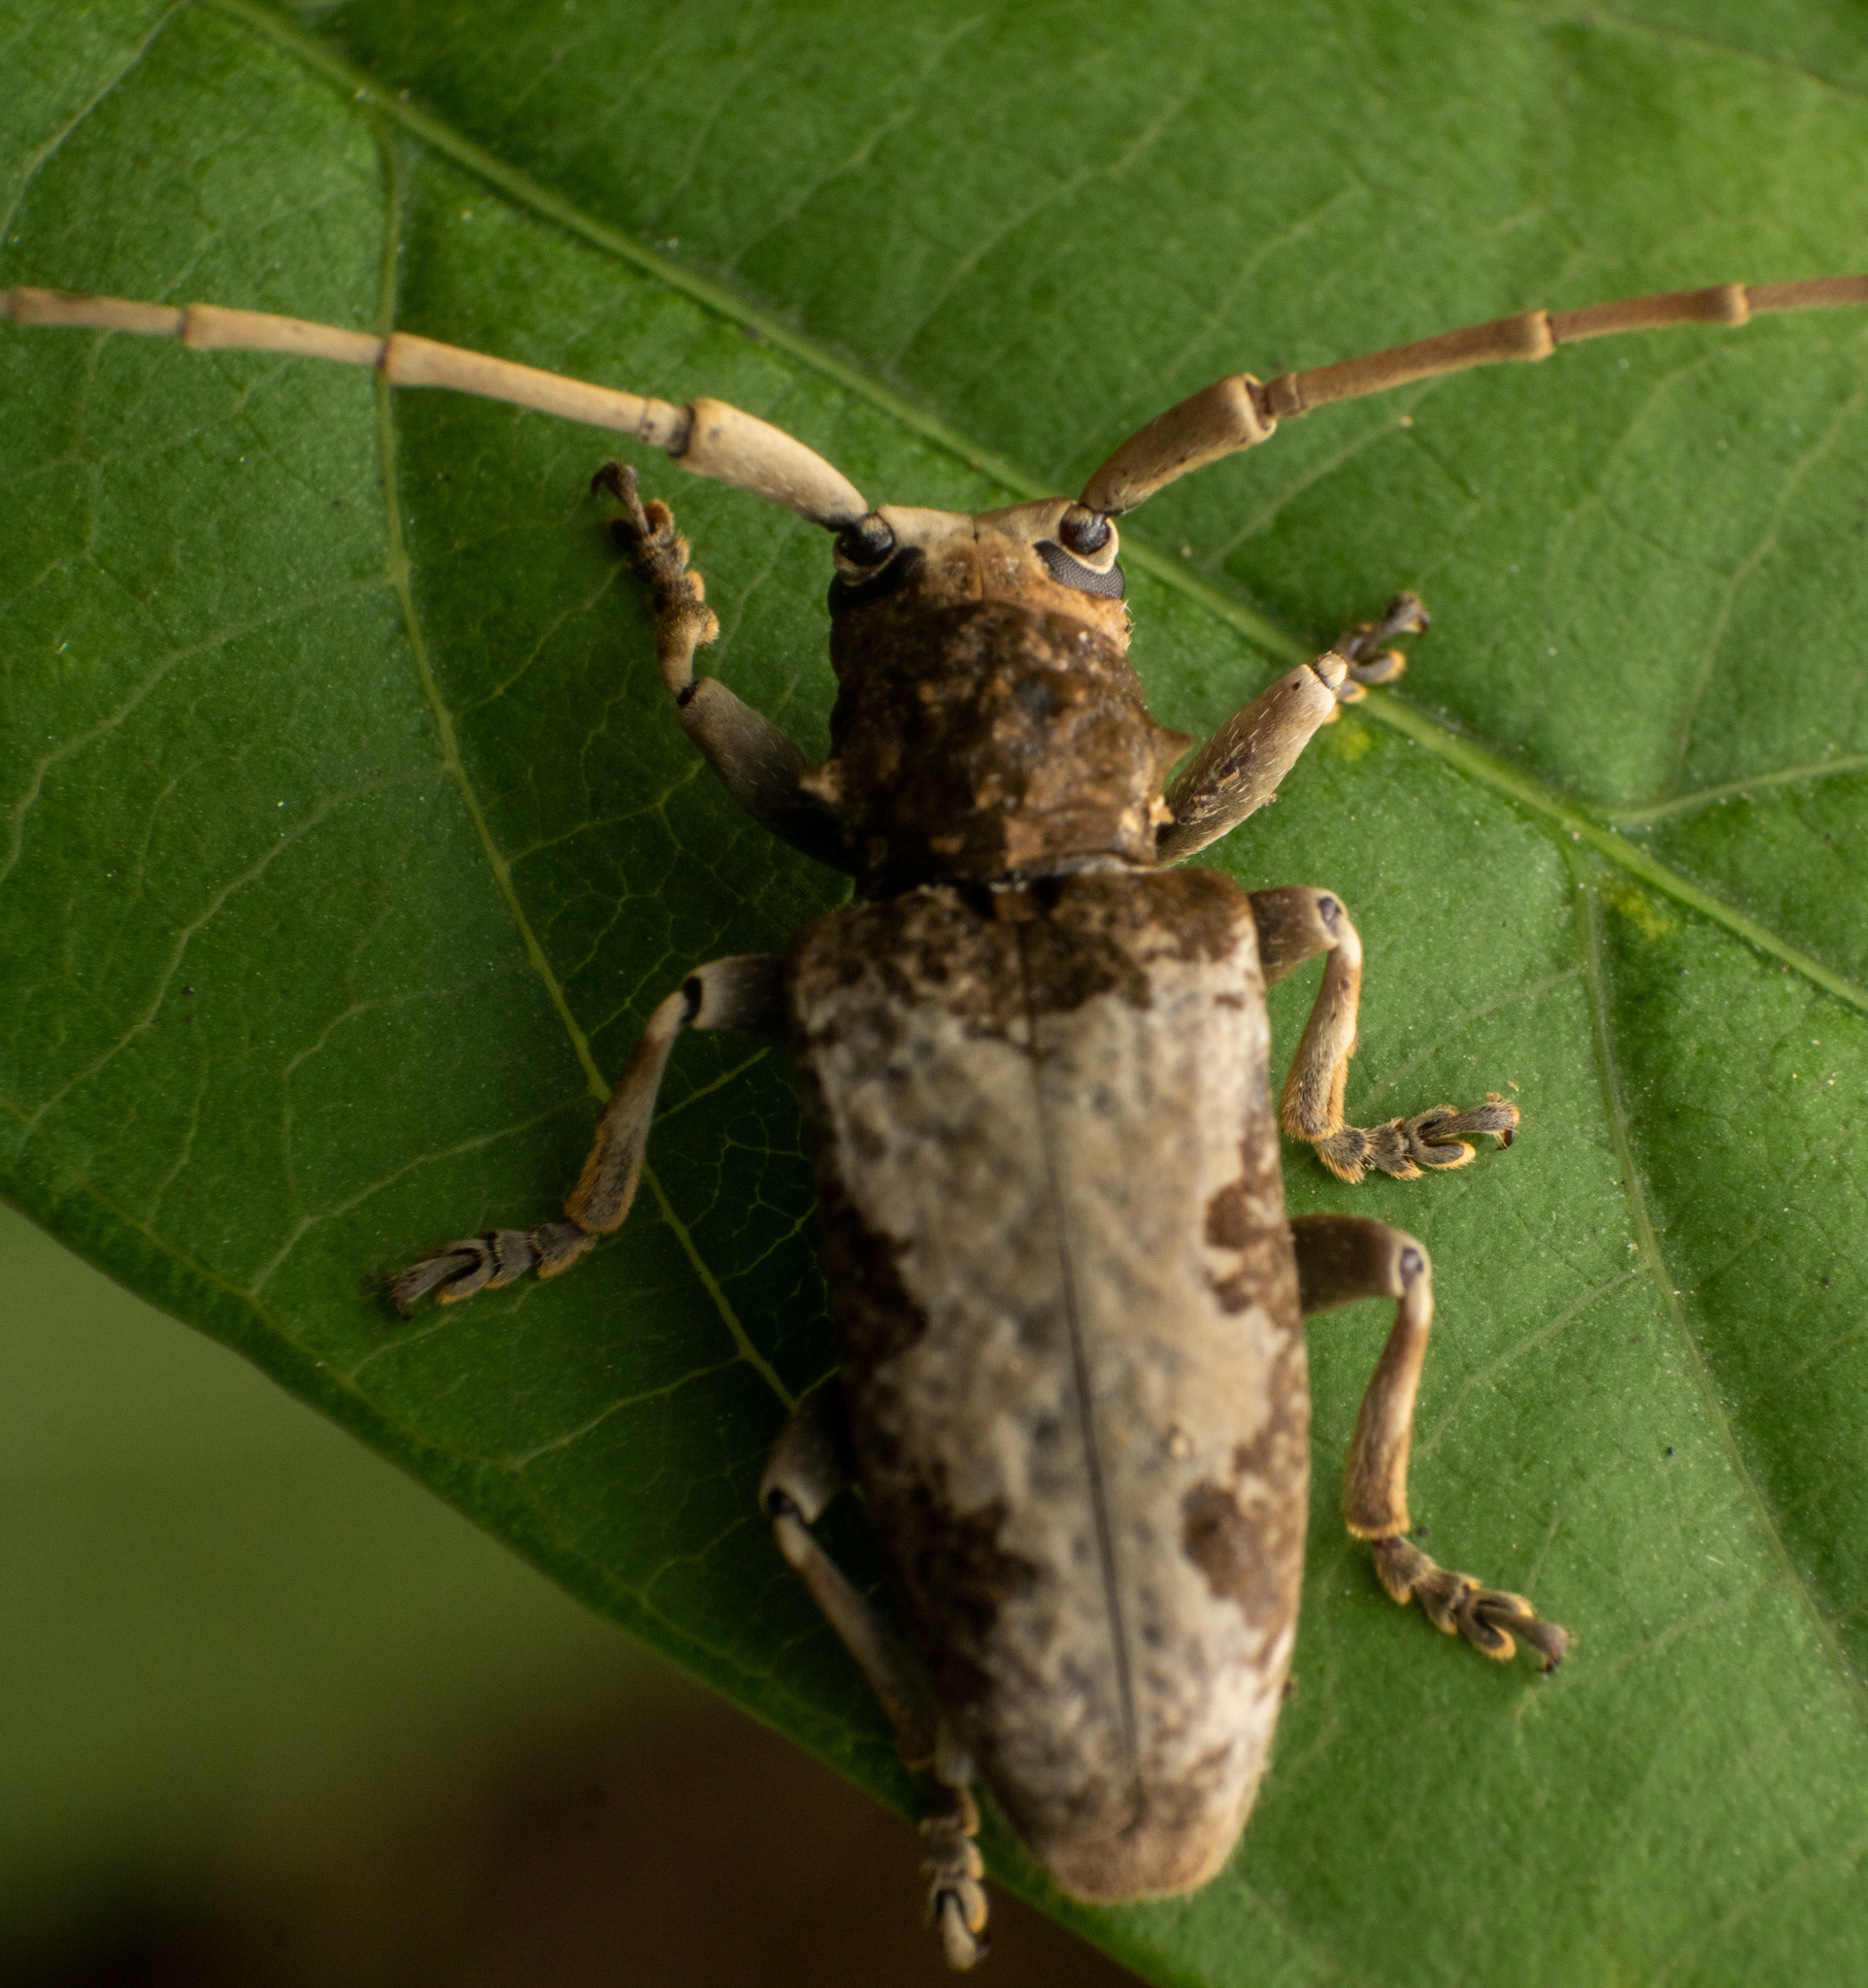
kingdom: Animalia
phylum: Arthropoda
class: Insecta
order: Coleoptera
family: Cerambycidae
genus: Acalolepta
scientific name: Acalolepta nivosa
